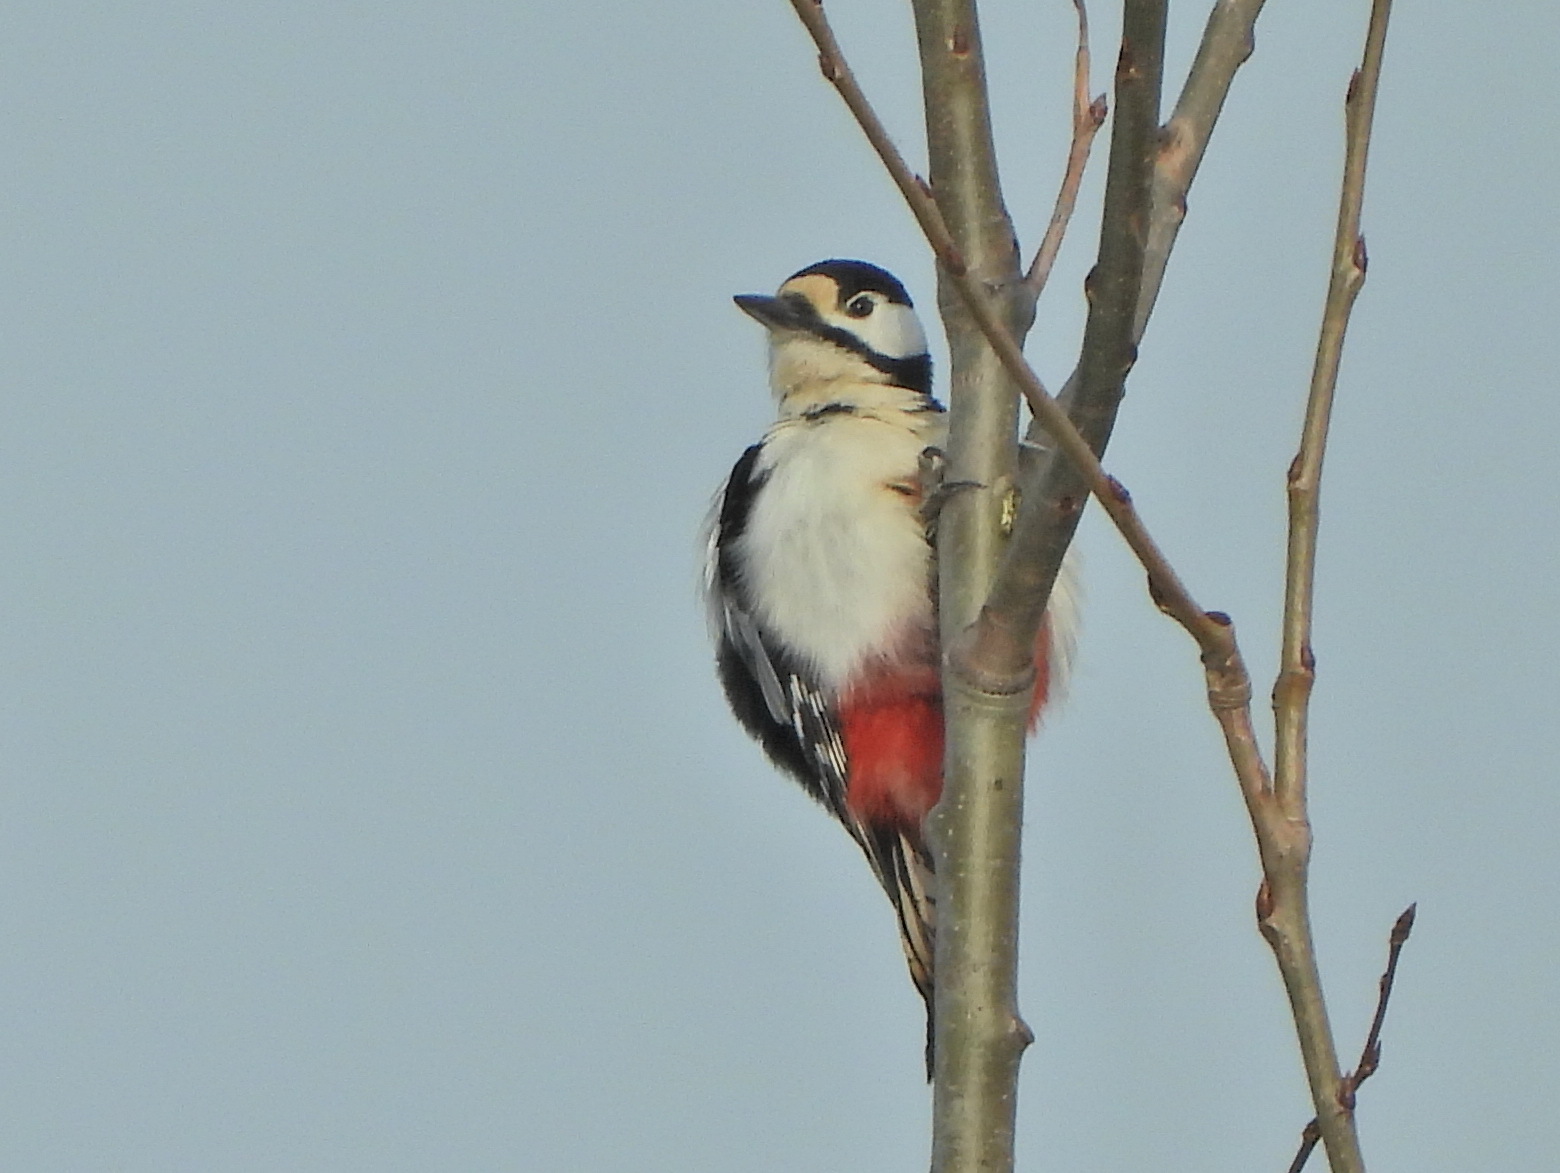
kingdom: Animalia
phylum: Chordata
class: Aves
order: Piciformes
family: Picidae
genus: Dendrocopos
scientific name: Dendrocopos major
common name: Great spotted woodpecker
